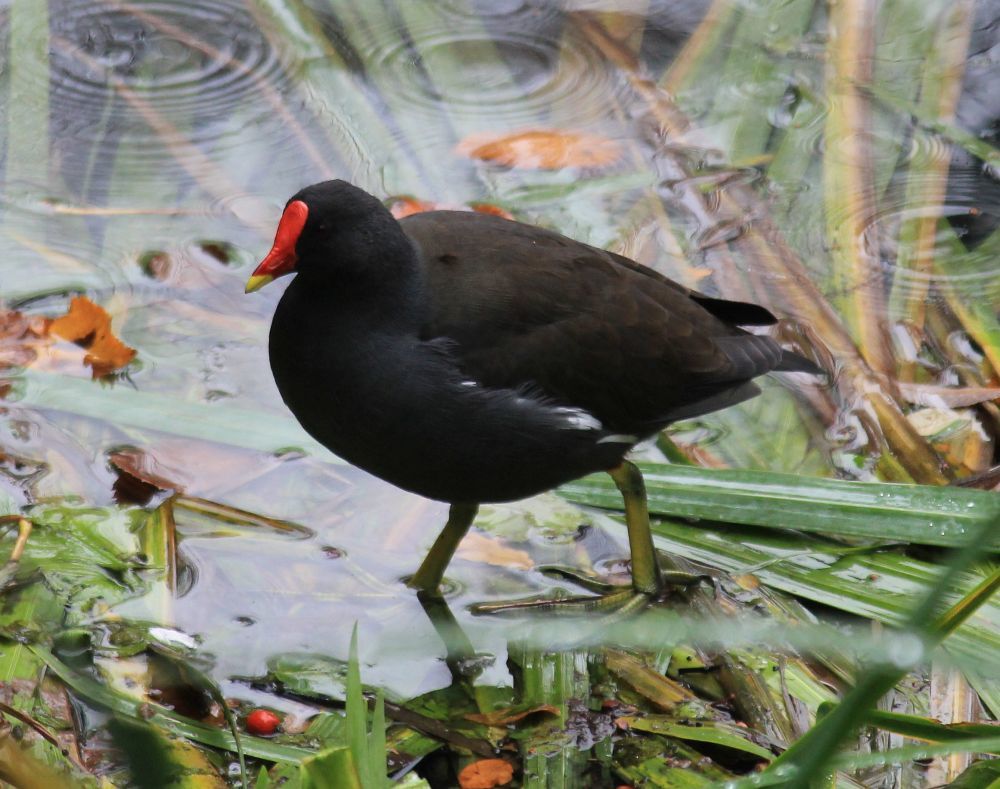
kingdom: Animalia
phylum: Chordata
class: Aves
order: Gruiformes
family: Rallidae
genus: Gallinula
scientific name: Gallinula chloropus
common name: Common moorhen
